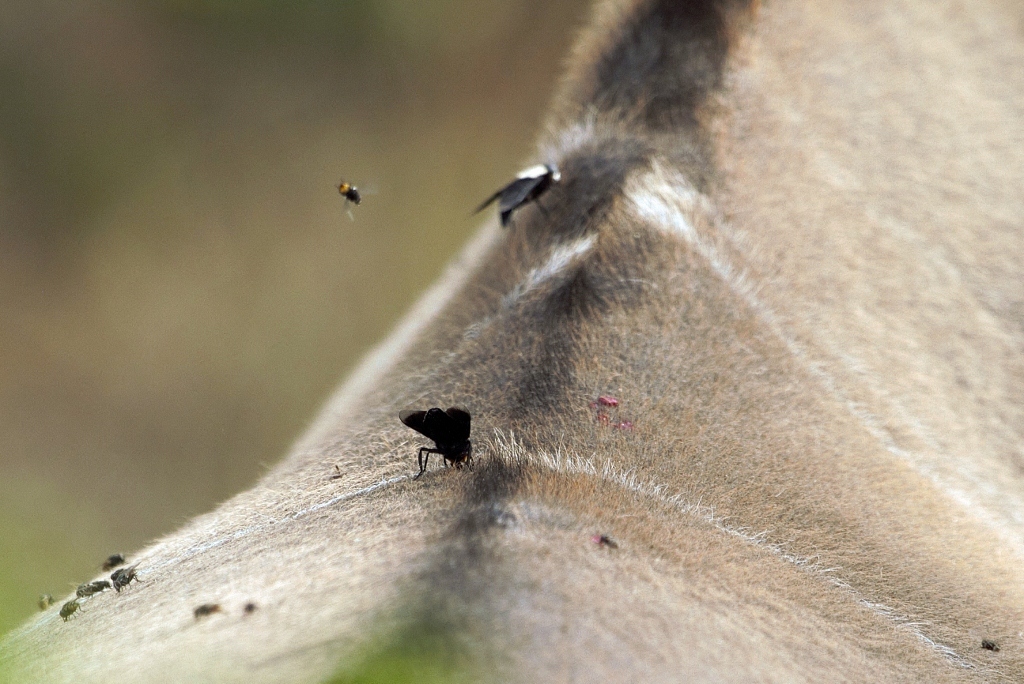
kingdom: Animalia
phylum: Arthropoda
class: Insecta
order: Diptera
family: Tabanidae
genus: Tabanus
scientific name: Tabanus biguttatus
